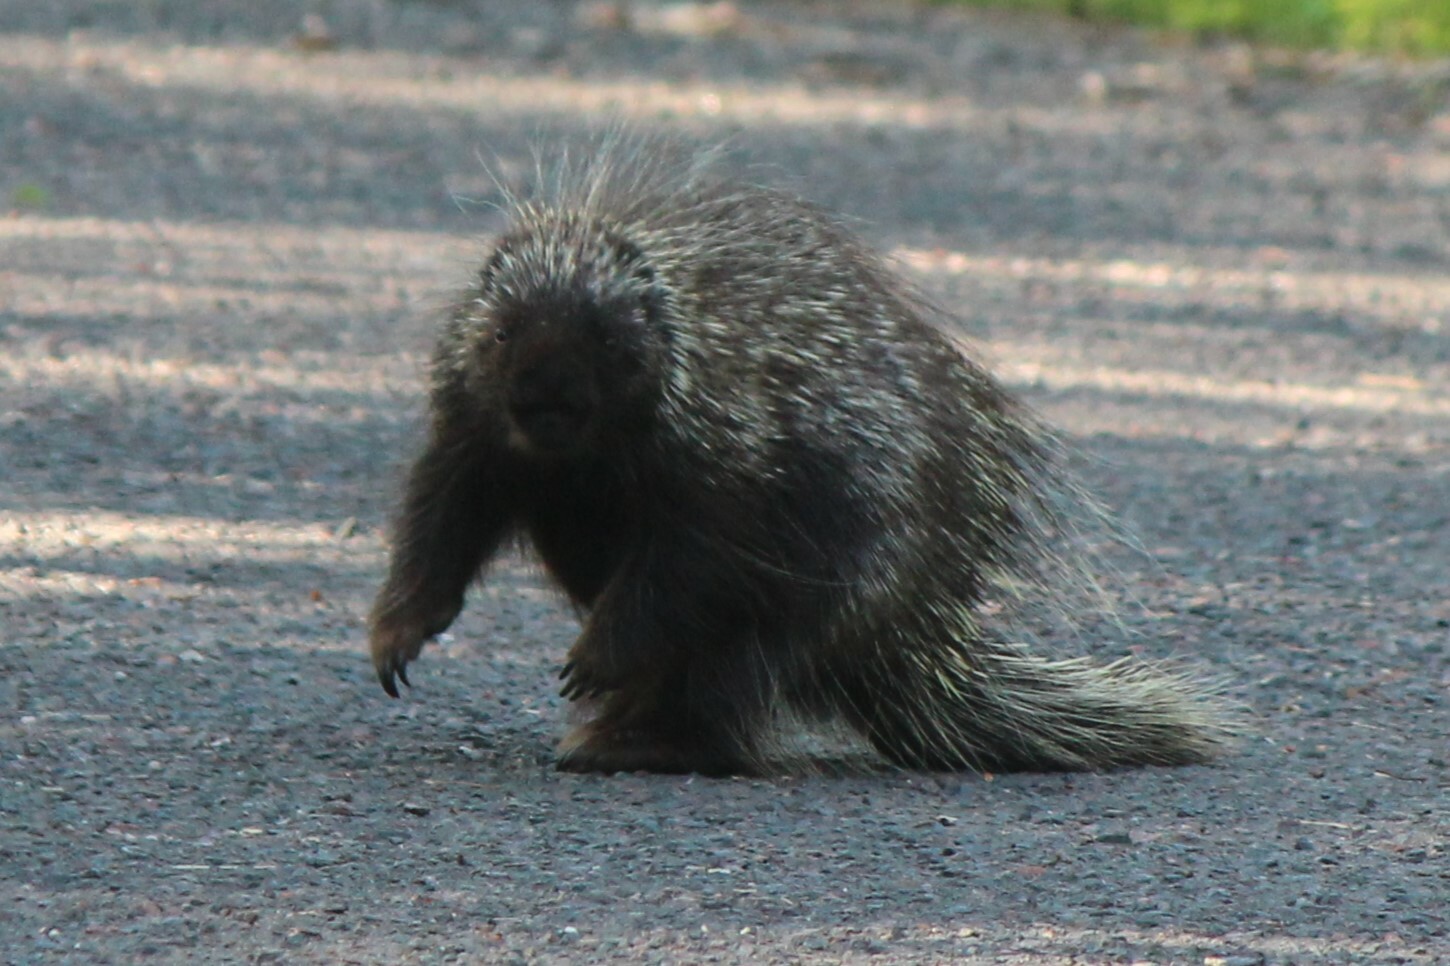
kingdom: Animalia
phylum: Chordata
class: Mammalia
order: Rodentia
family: Erethizontidae
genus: Erethizon
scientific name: Erethizon dorsatus
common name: North american porcupine
